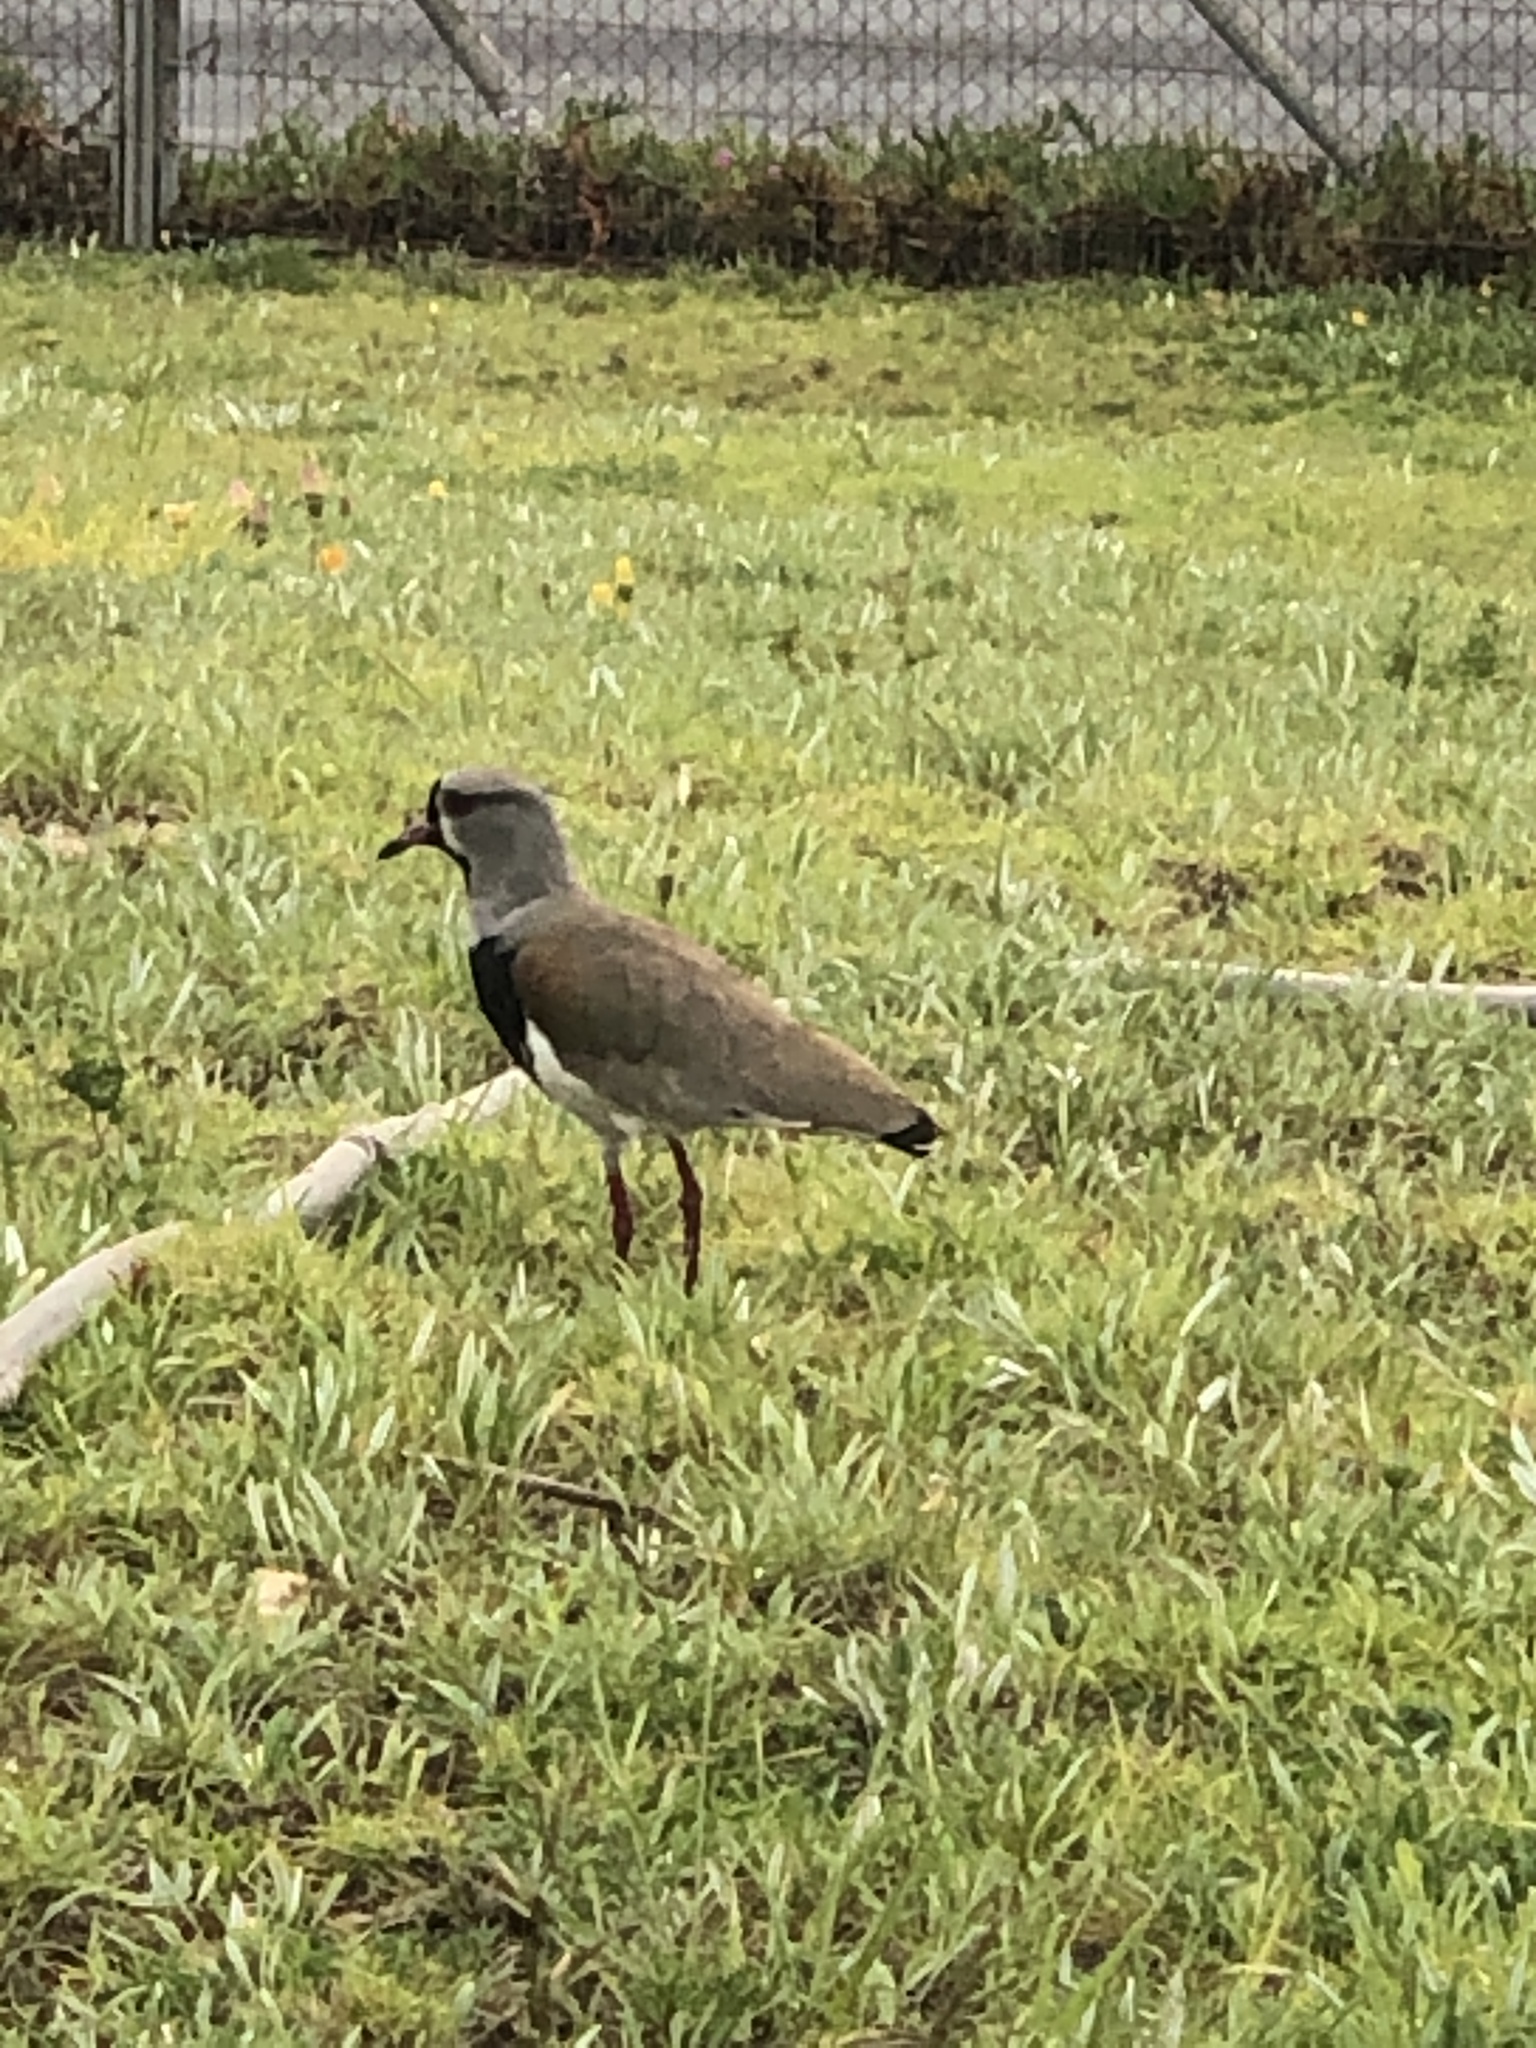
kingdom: Animalia
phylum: Chordata
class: Aves
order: Charadriiformes
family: Charadriidae
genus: Vanellus
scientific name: Vanellus chilensis
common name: Southern lapwing
